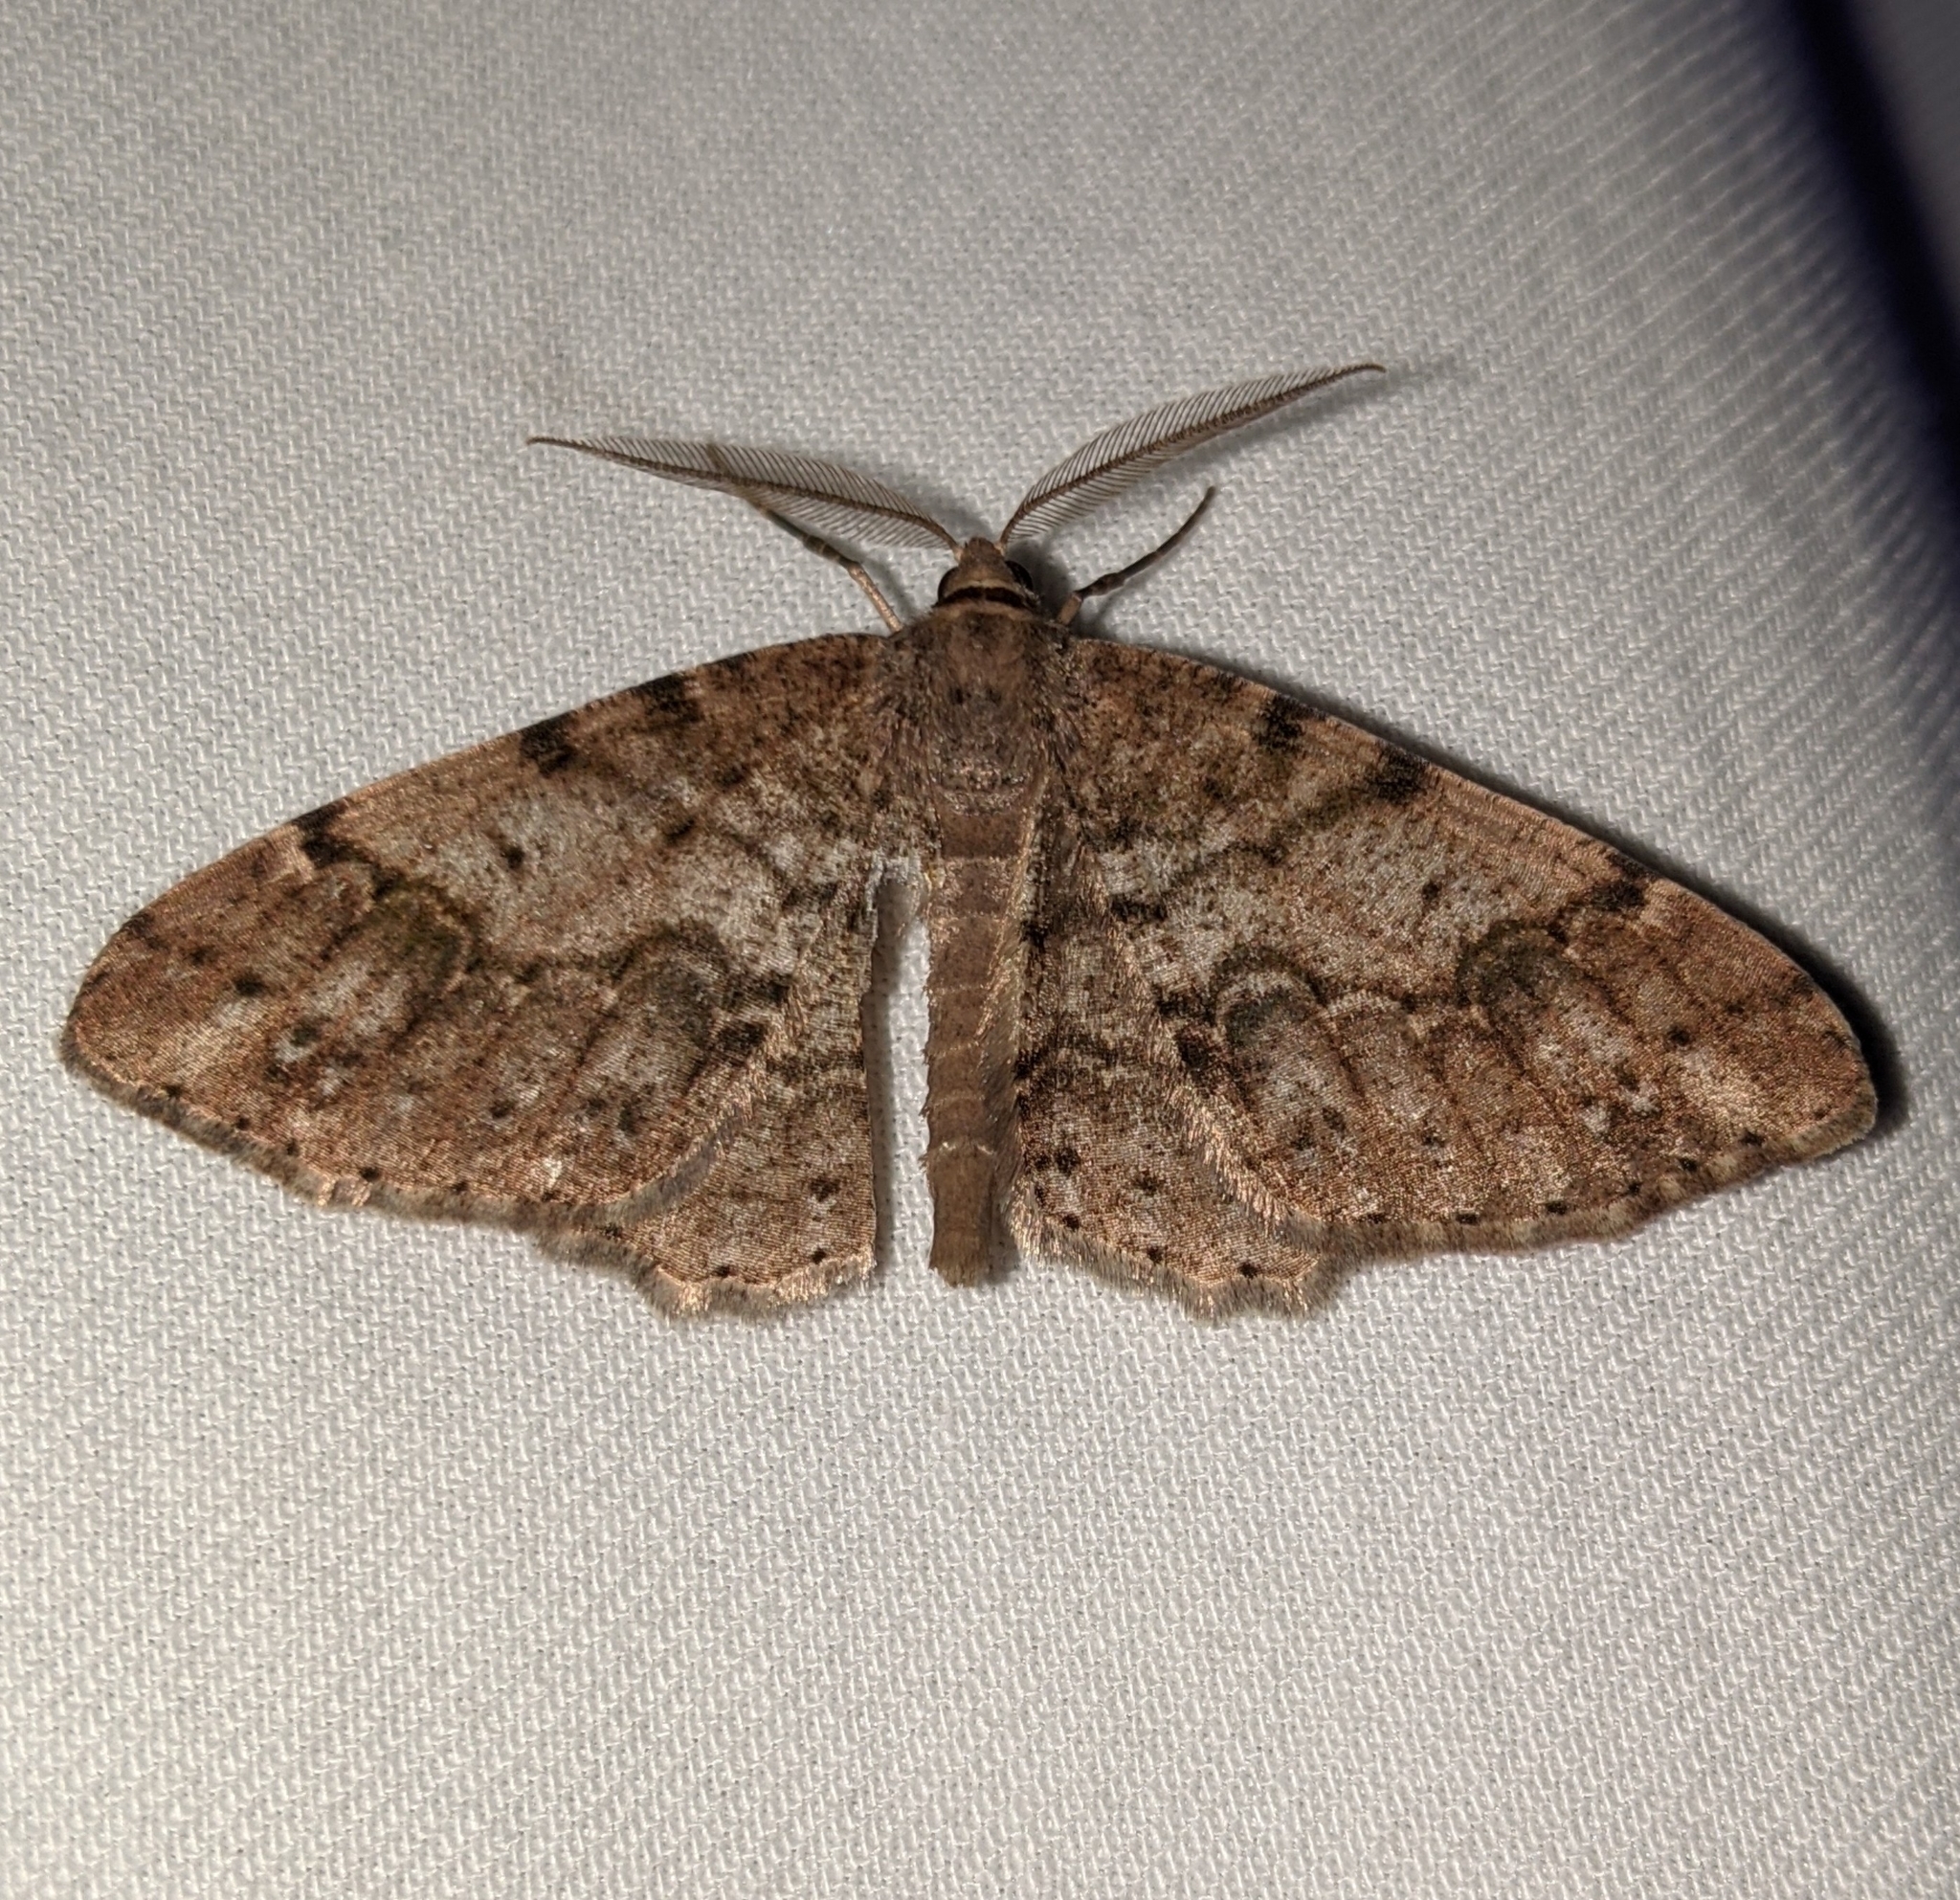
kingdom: Animalia
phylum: Arthropoda
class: Insecta
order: Lepidoptera
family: Geometridae
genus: Melanolophia
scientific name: Melanolophia imitata
